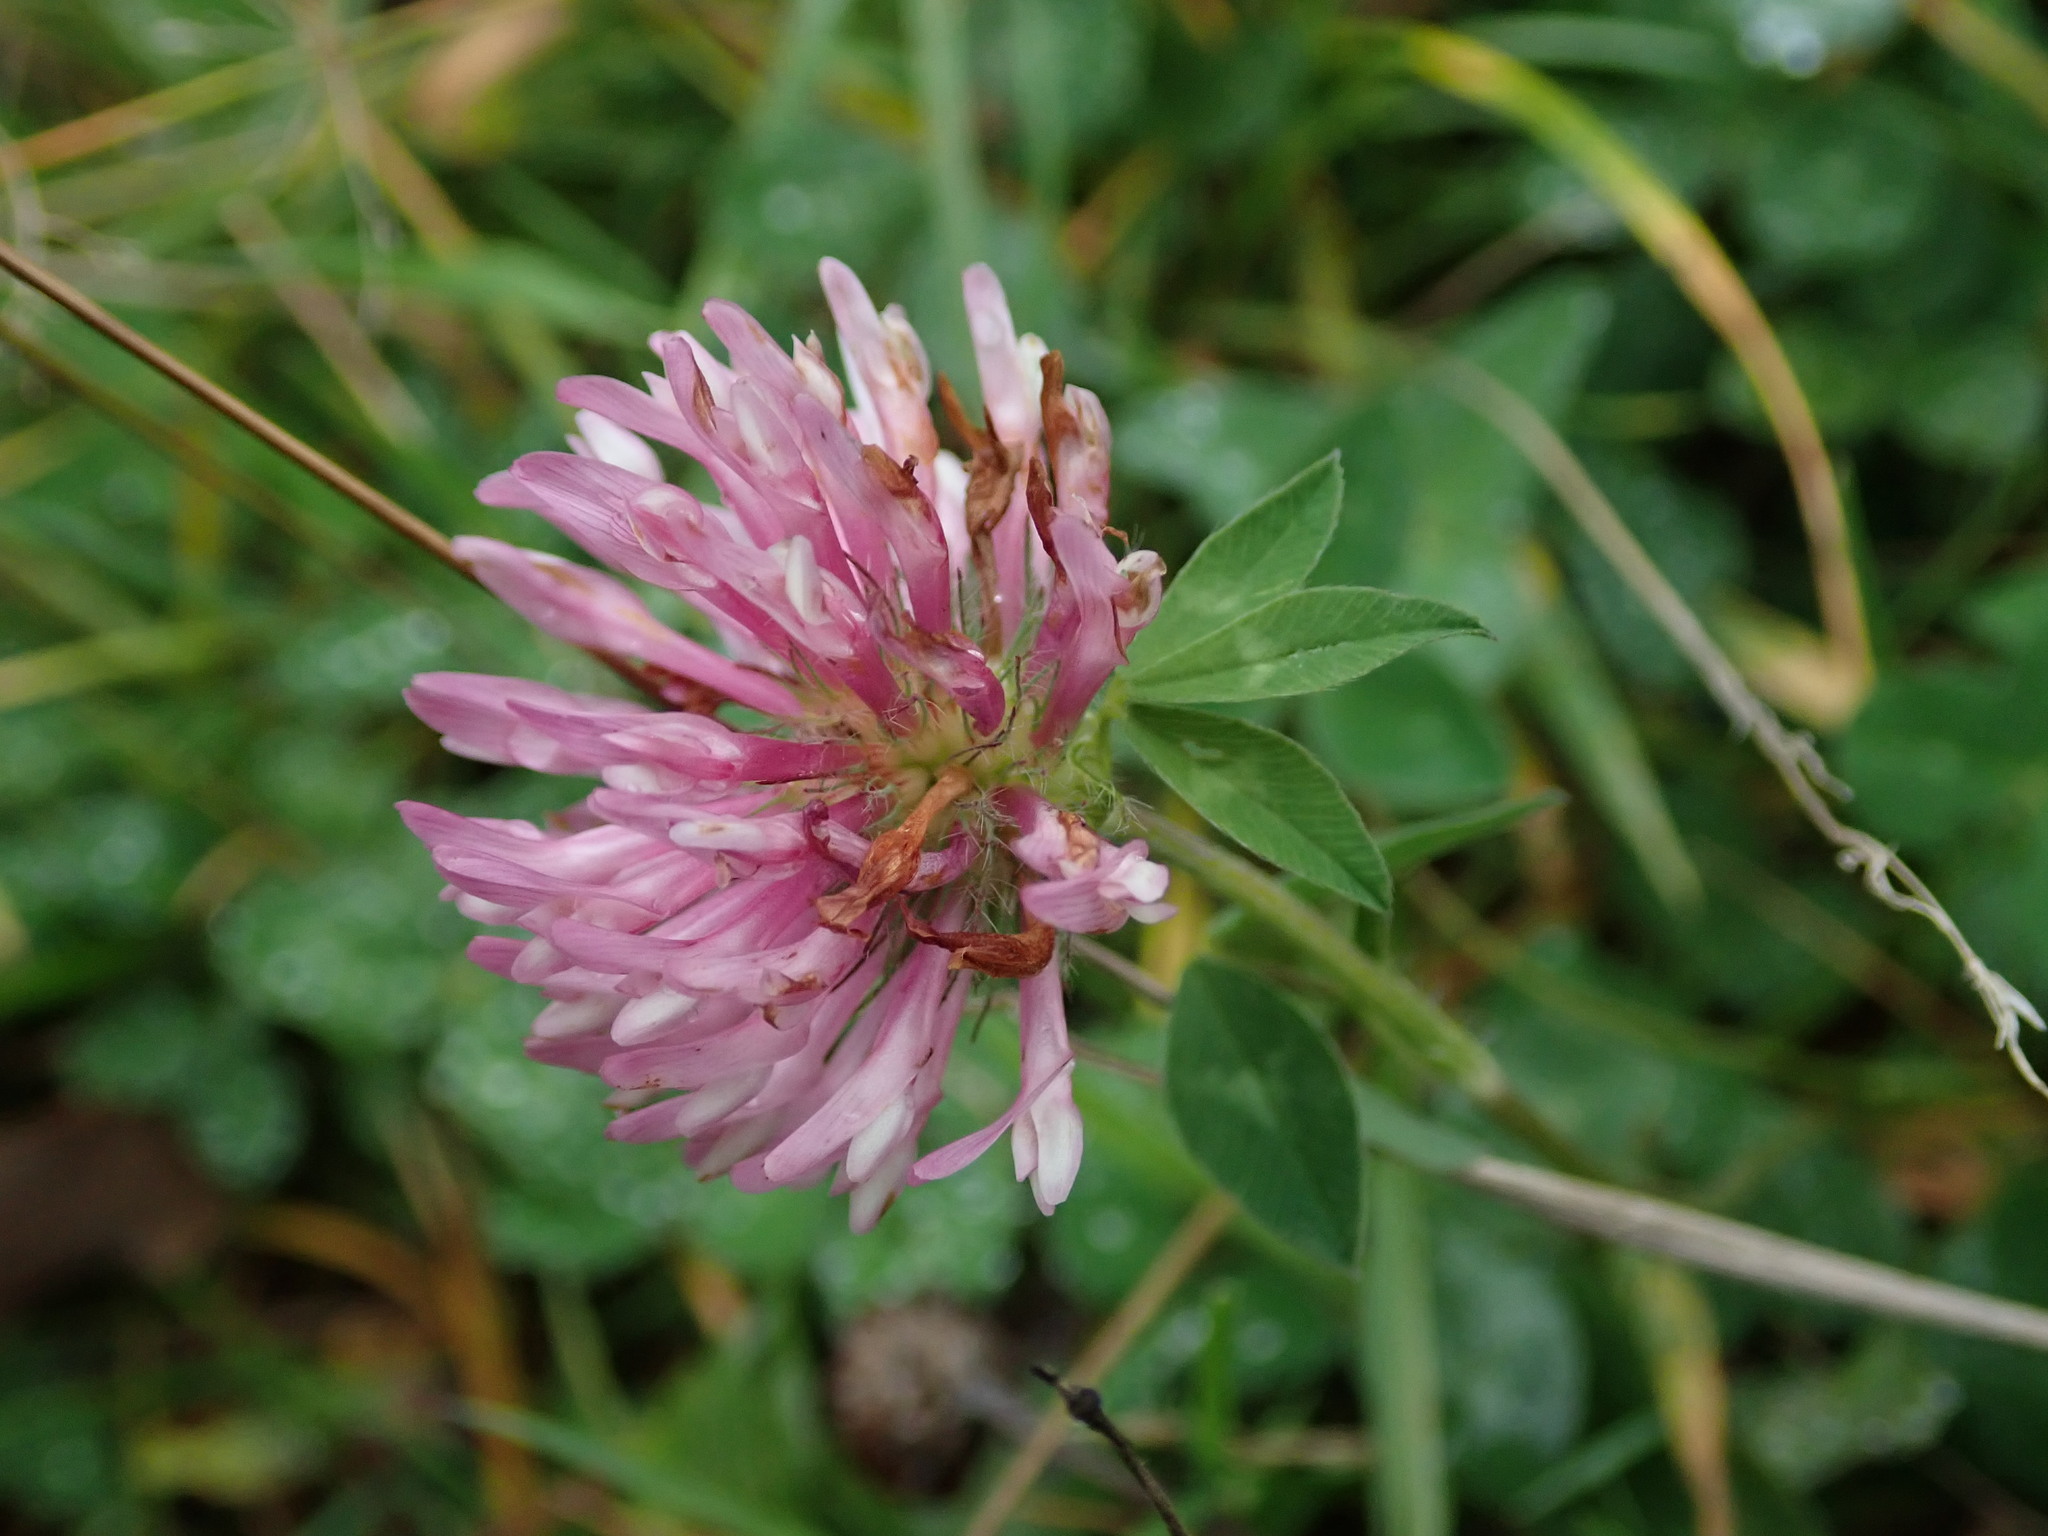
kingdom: Plantae
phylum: Tracheophyta
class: Magnoliopsida
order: Fabales
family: Fabaceae
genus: Trifolium
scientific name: Trifolium pratense
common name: Red clover
